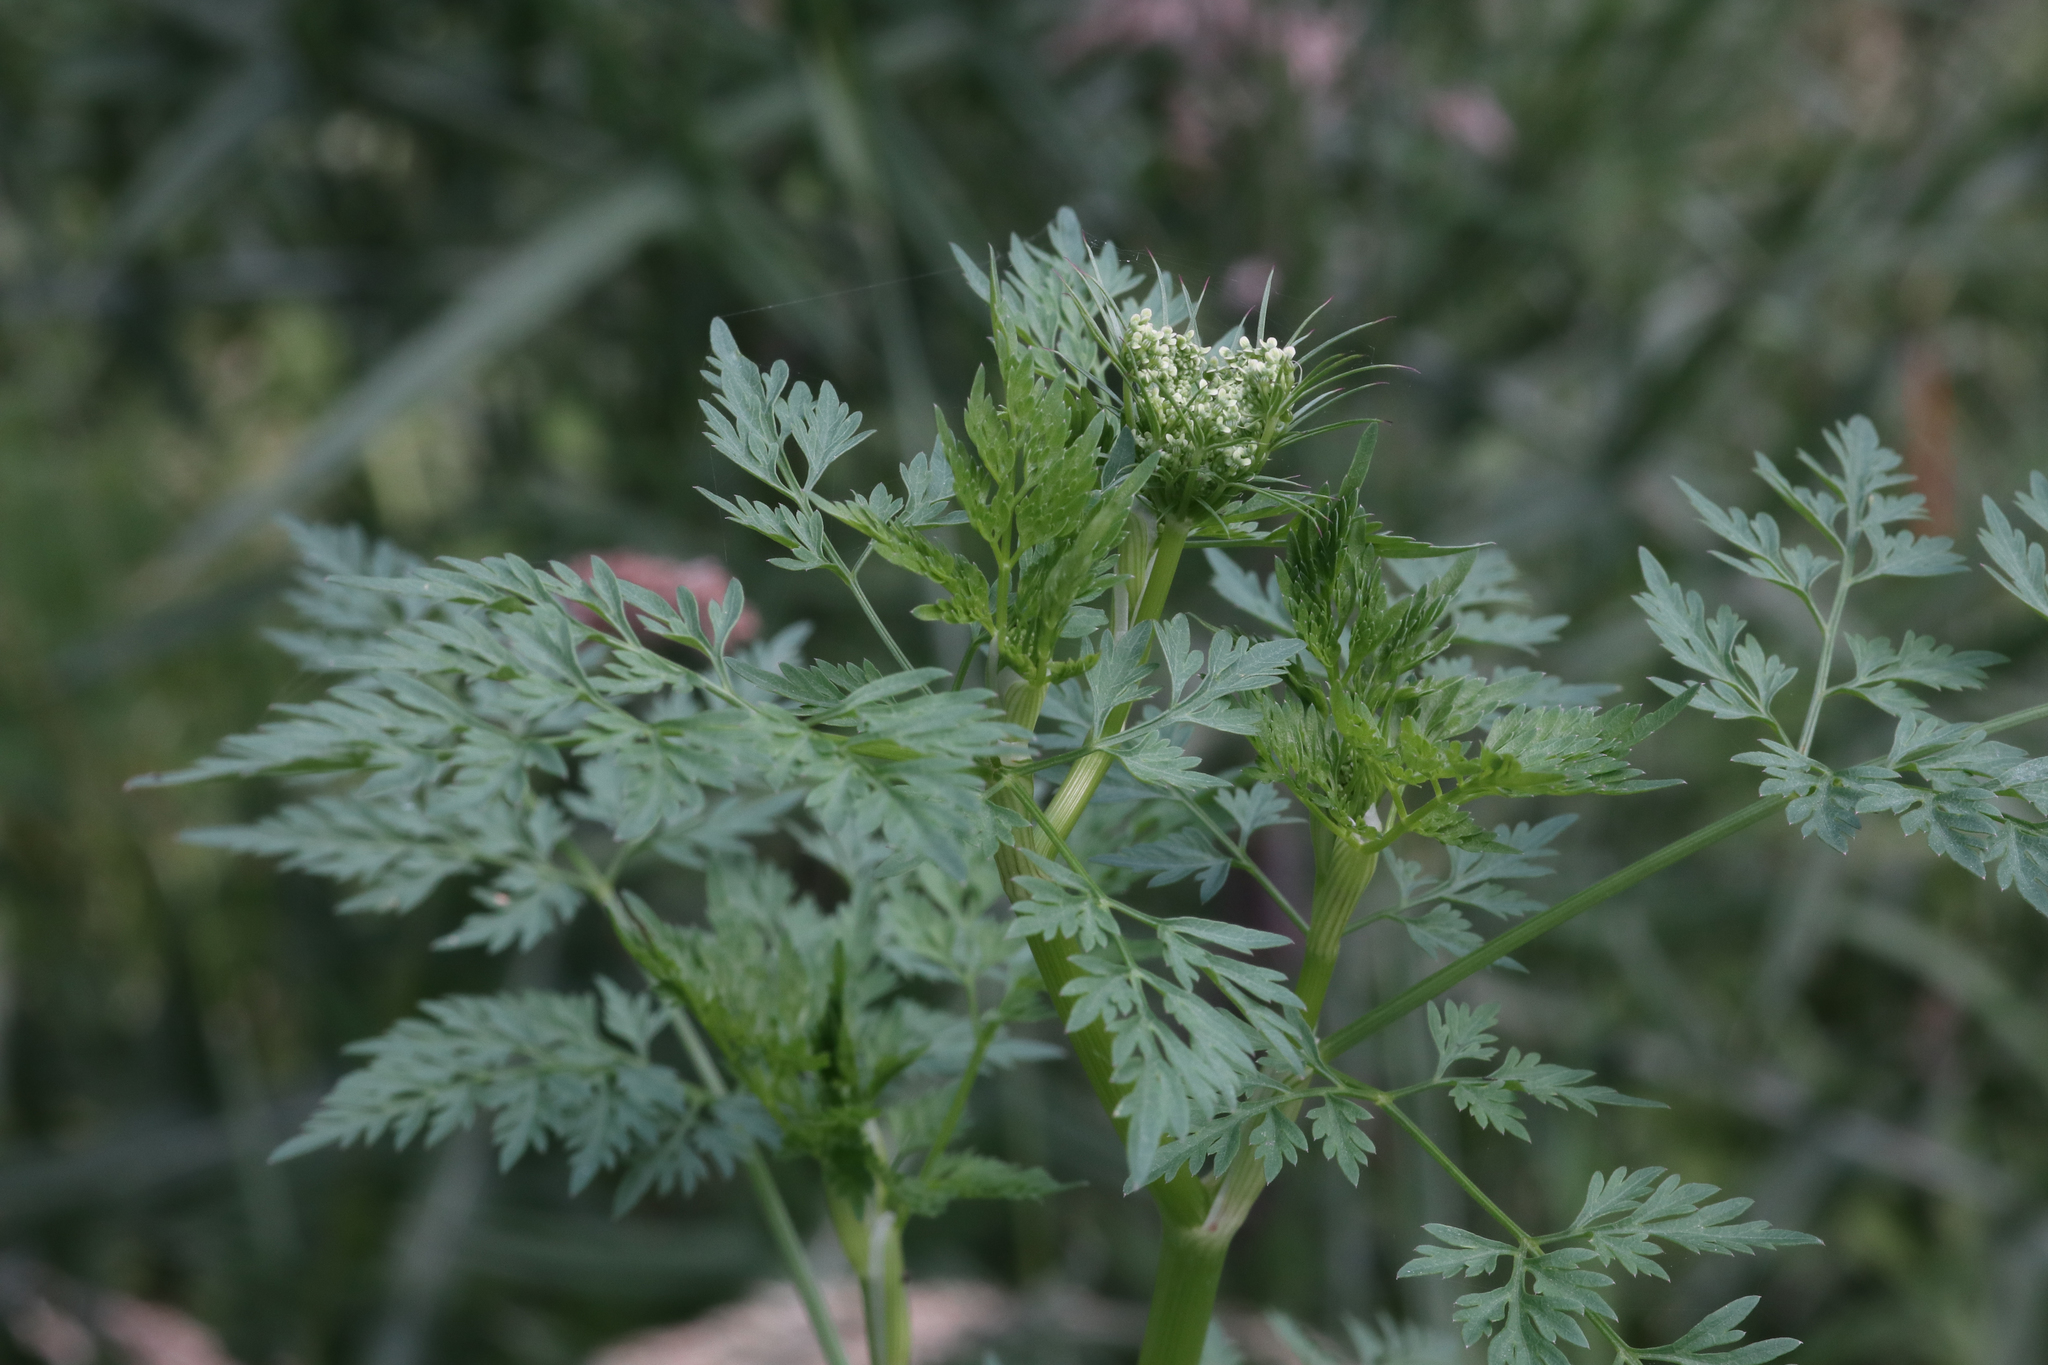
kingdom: Plantae
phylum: Tracheophyta
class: Magnoliopsida
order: Apiales
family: Apiaceae
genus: Aethusa
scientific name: Aethusa cynapium
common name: Fool's parsley
